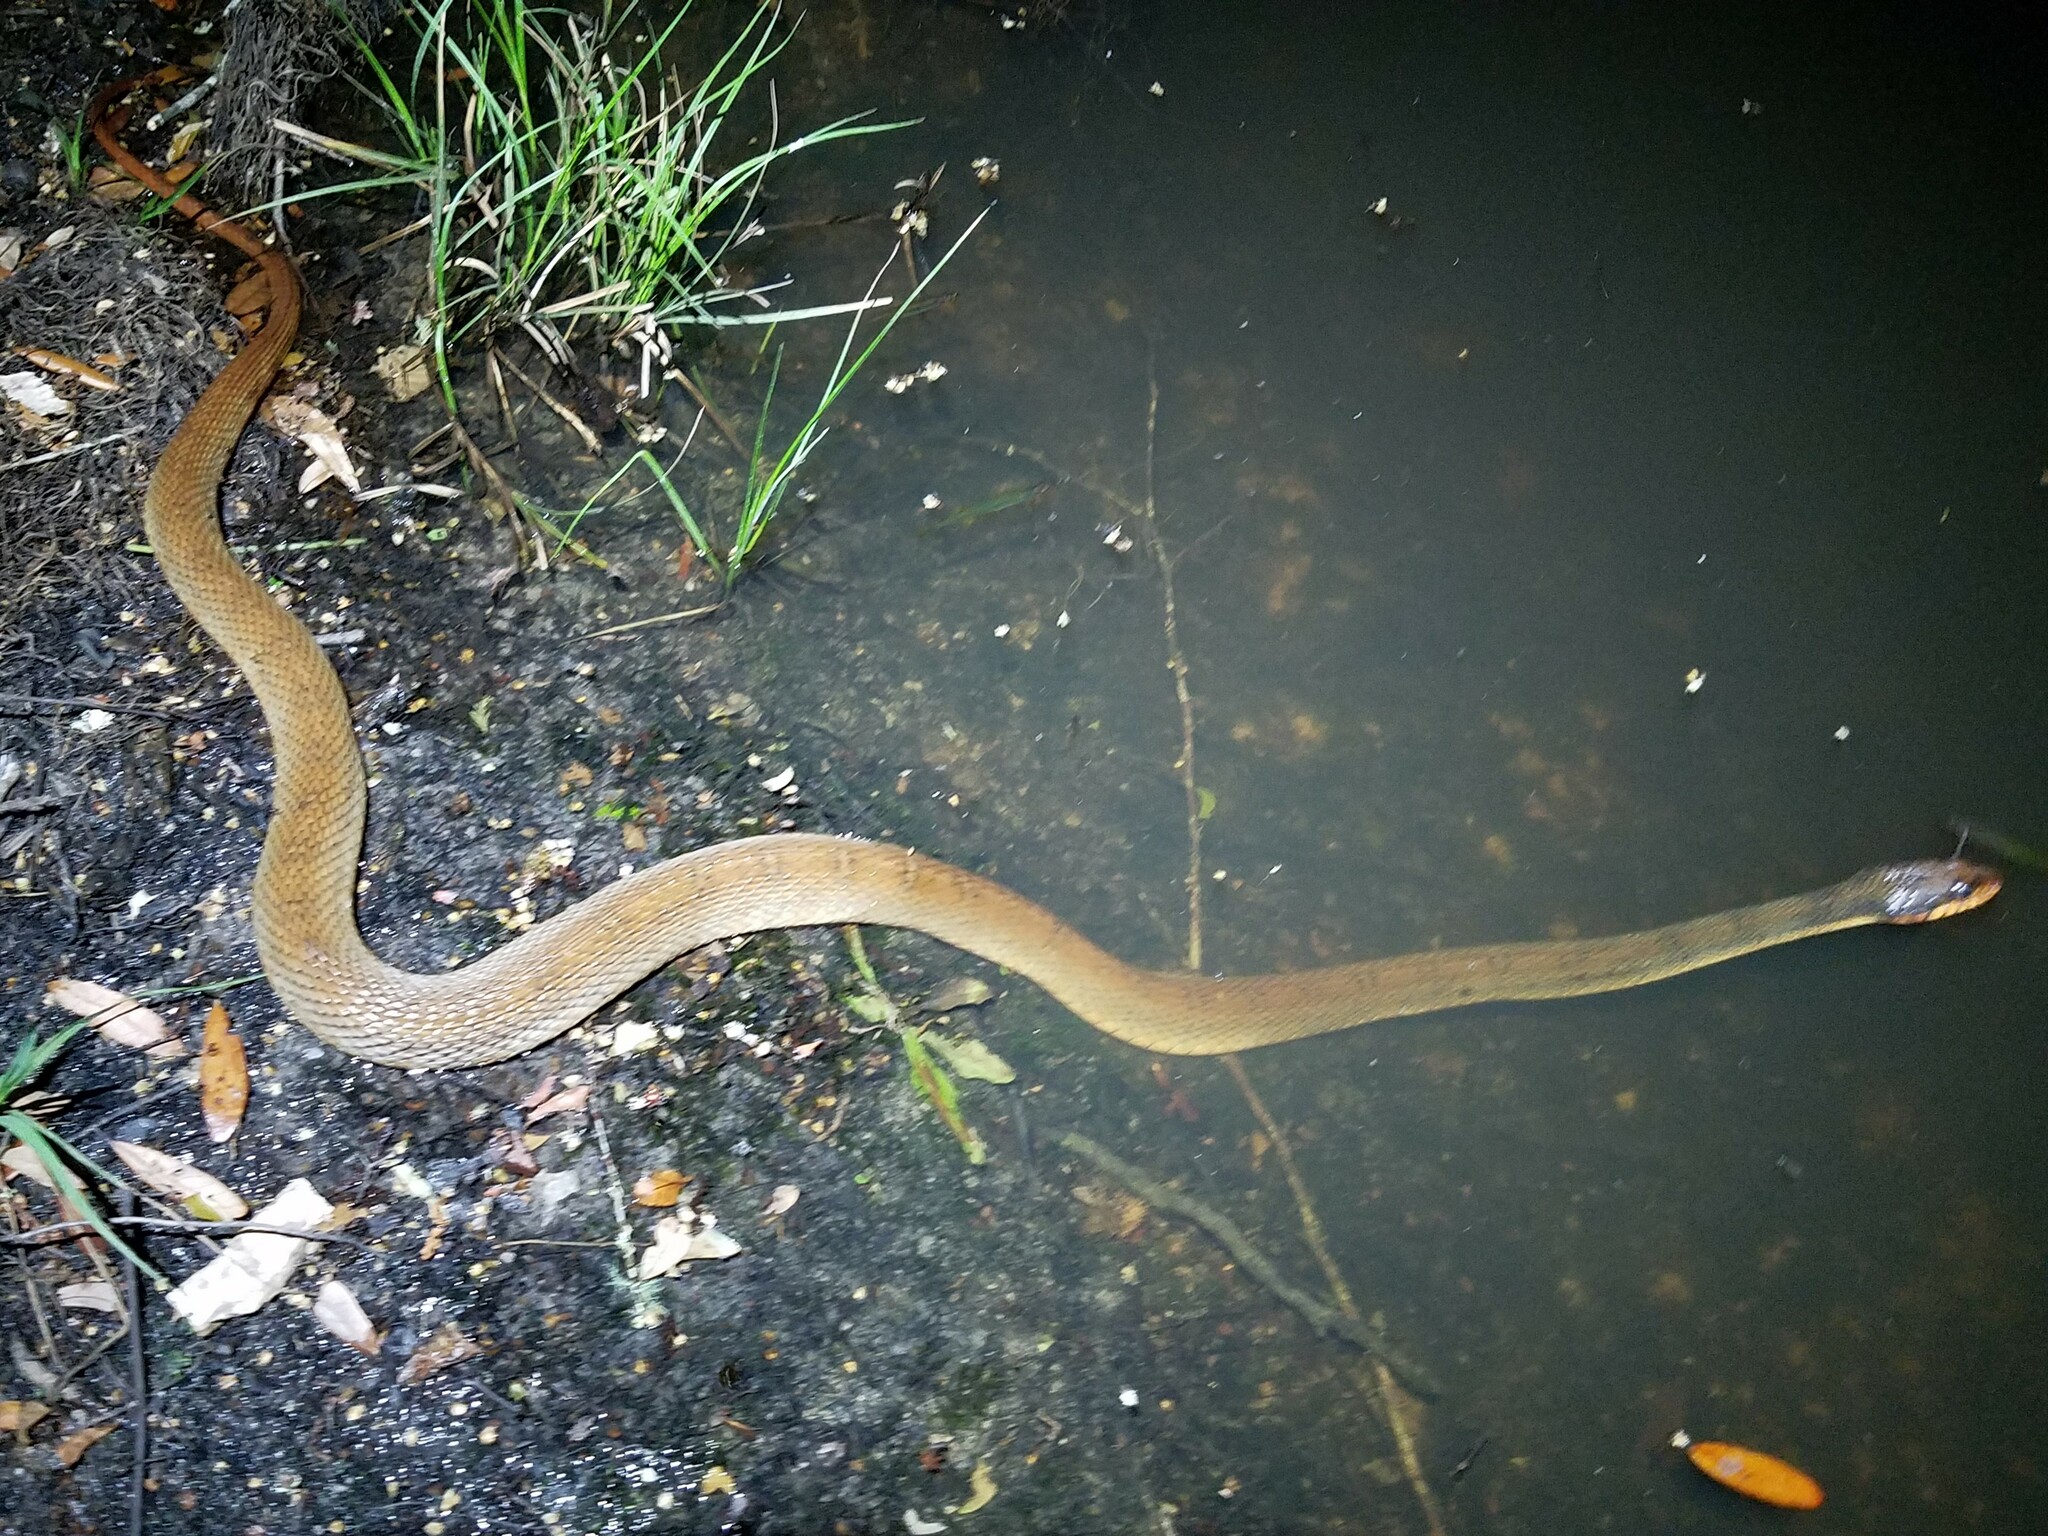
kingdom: Animalia
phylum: Chordata
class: Squamata
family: Colubridae
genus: Nerodia
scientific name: Nerodia erythrogaster
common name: Plainbelly water snake
